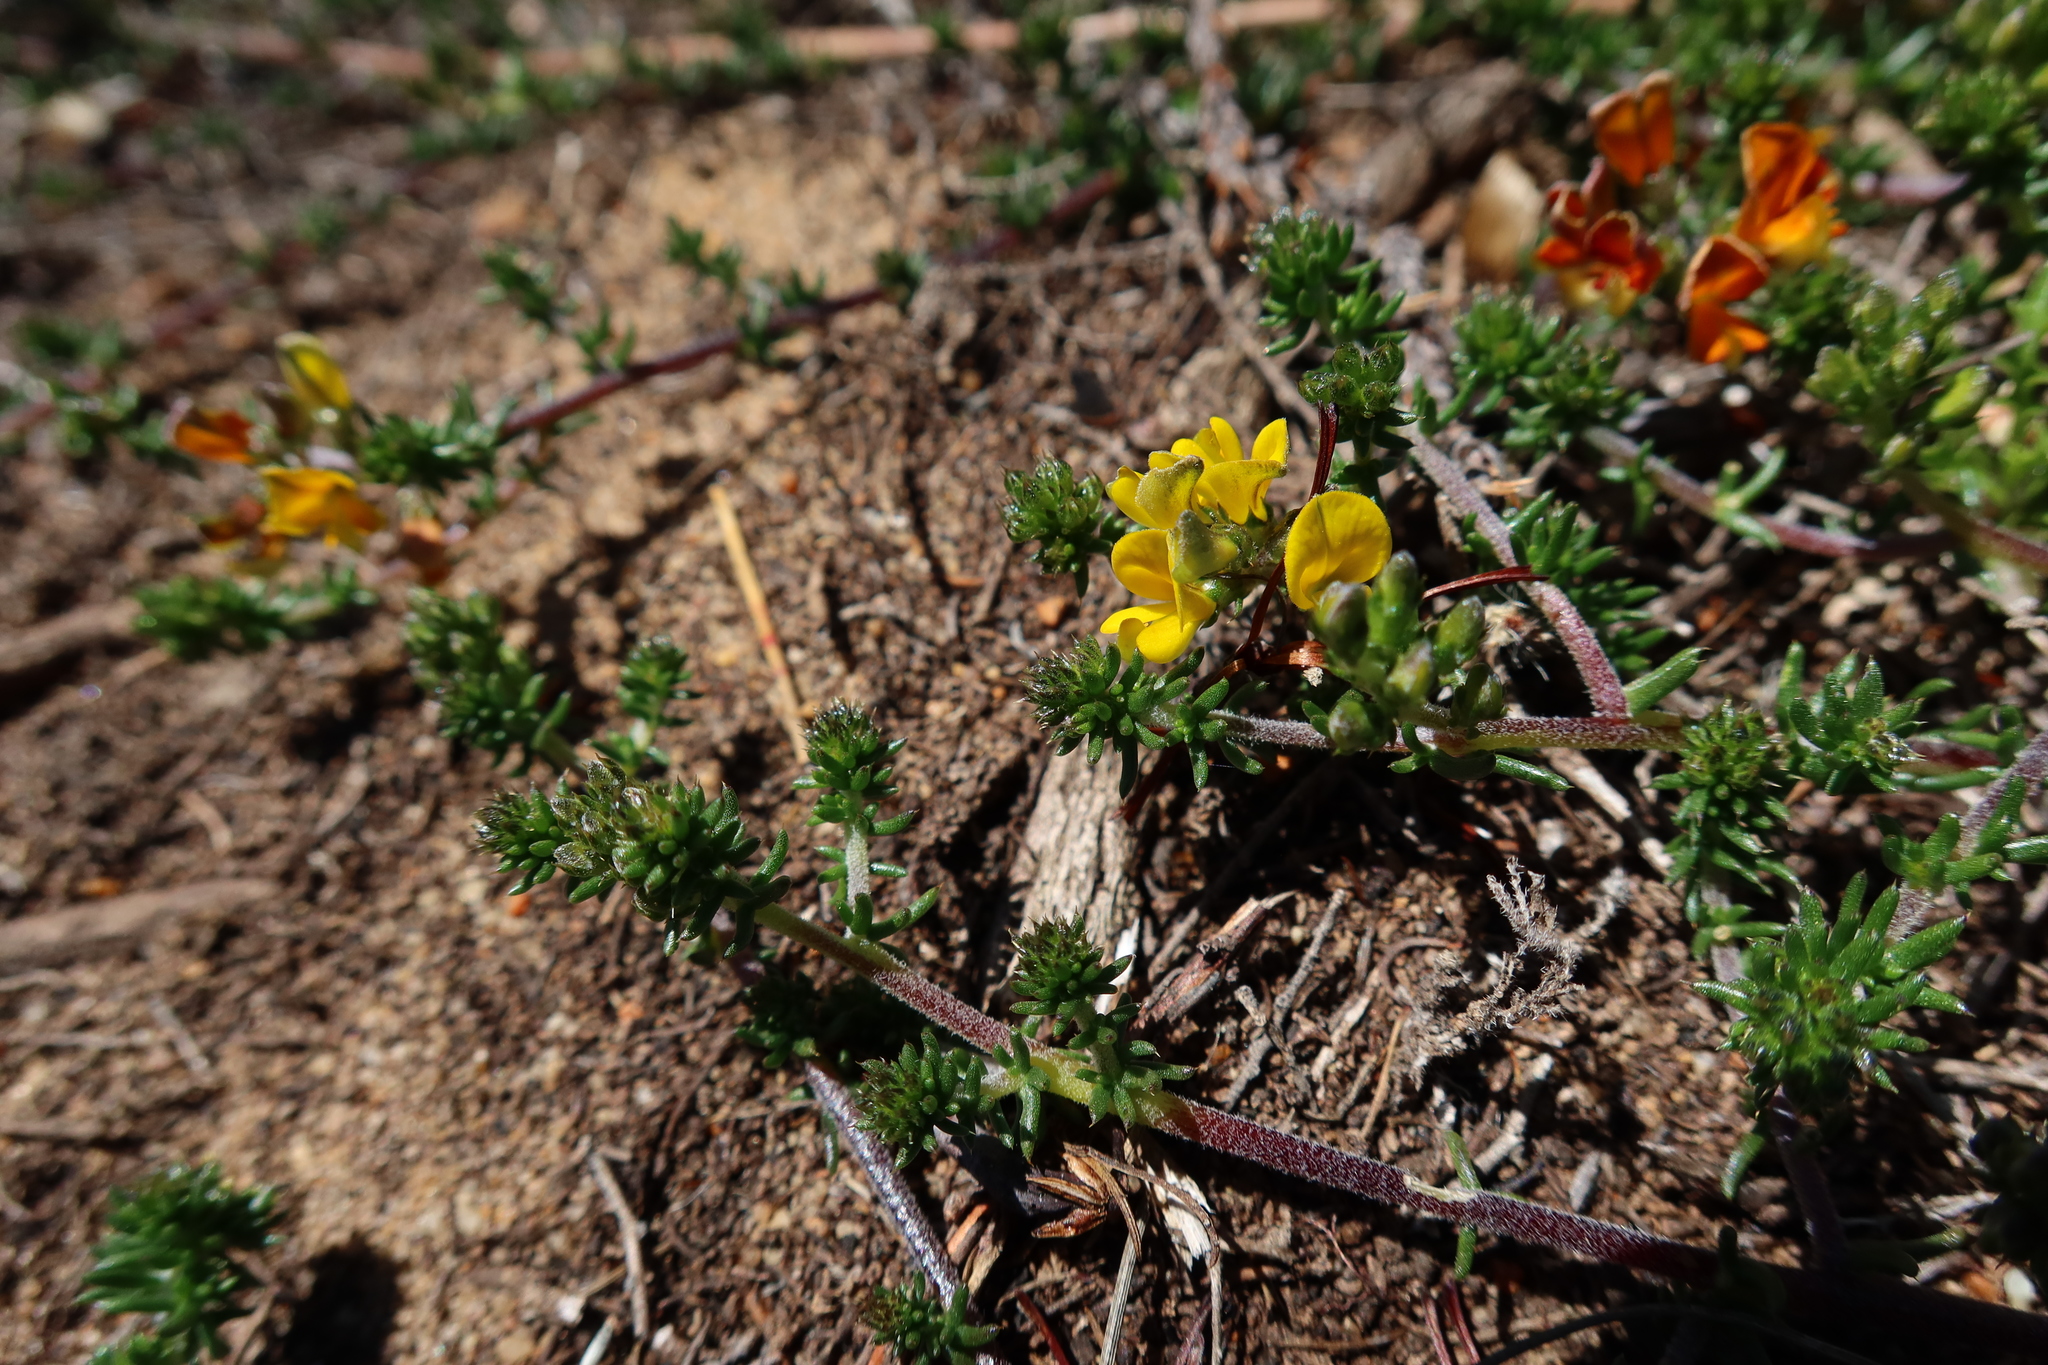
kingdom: Plantae
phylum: Tracheophyta
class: Magnoliopsida
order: Fabales
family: Fabaceae
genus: Aspalathus
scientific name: Aspalathus divaricata
